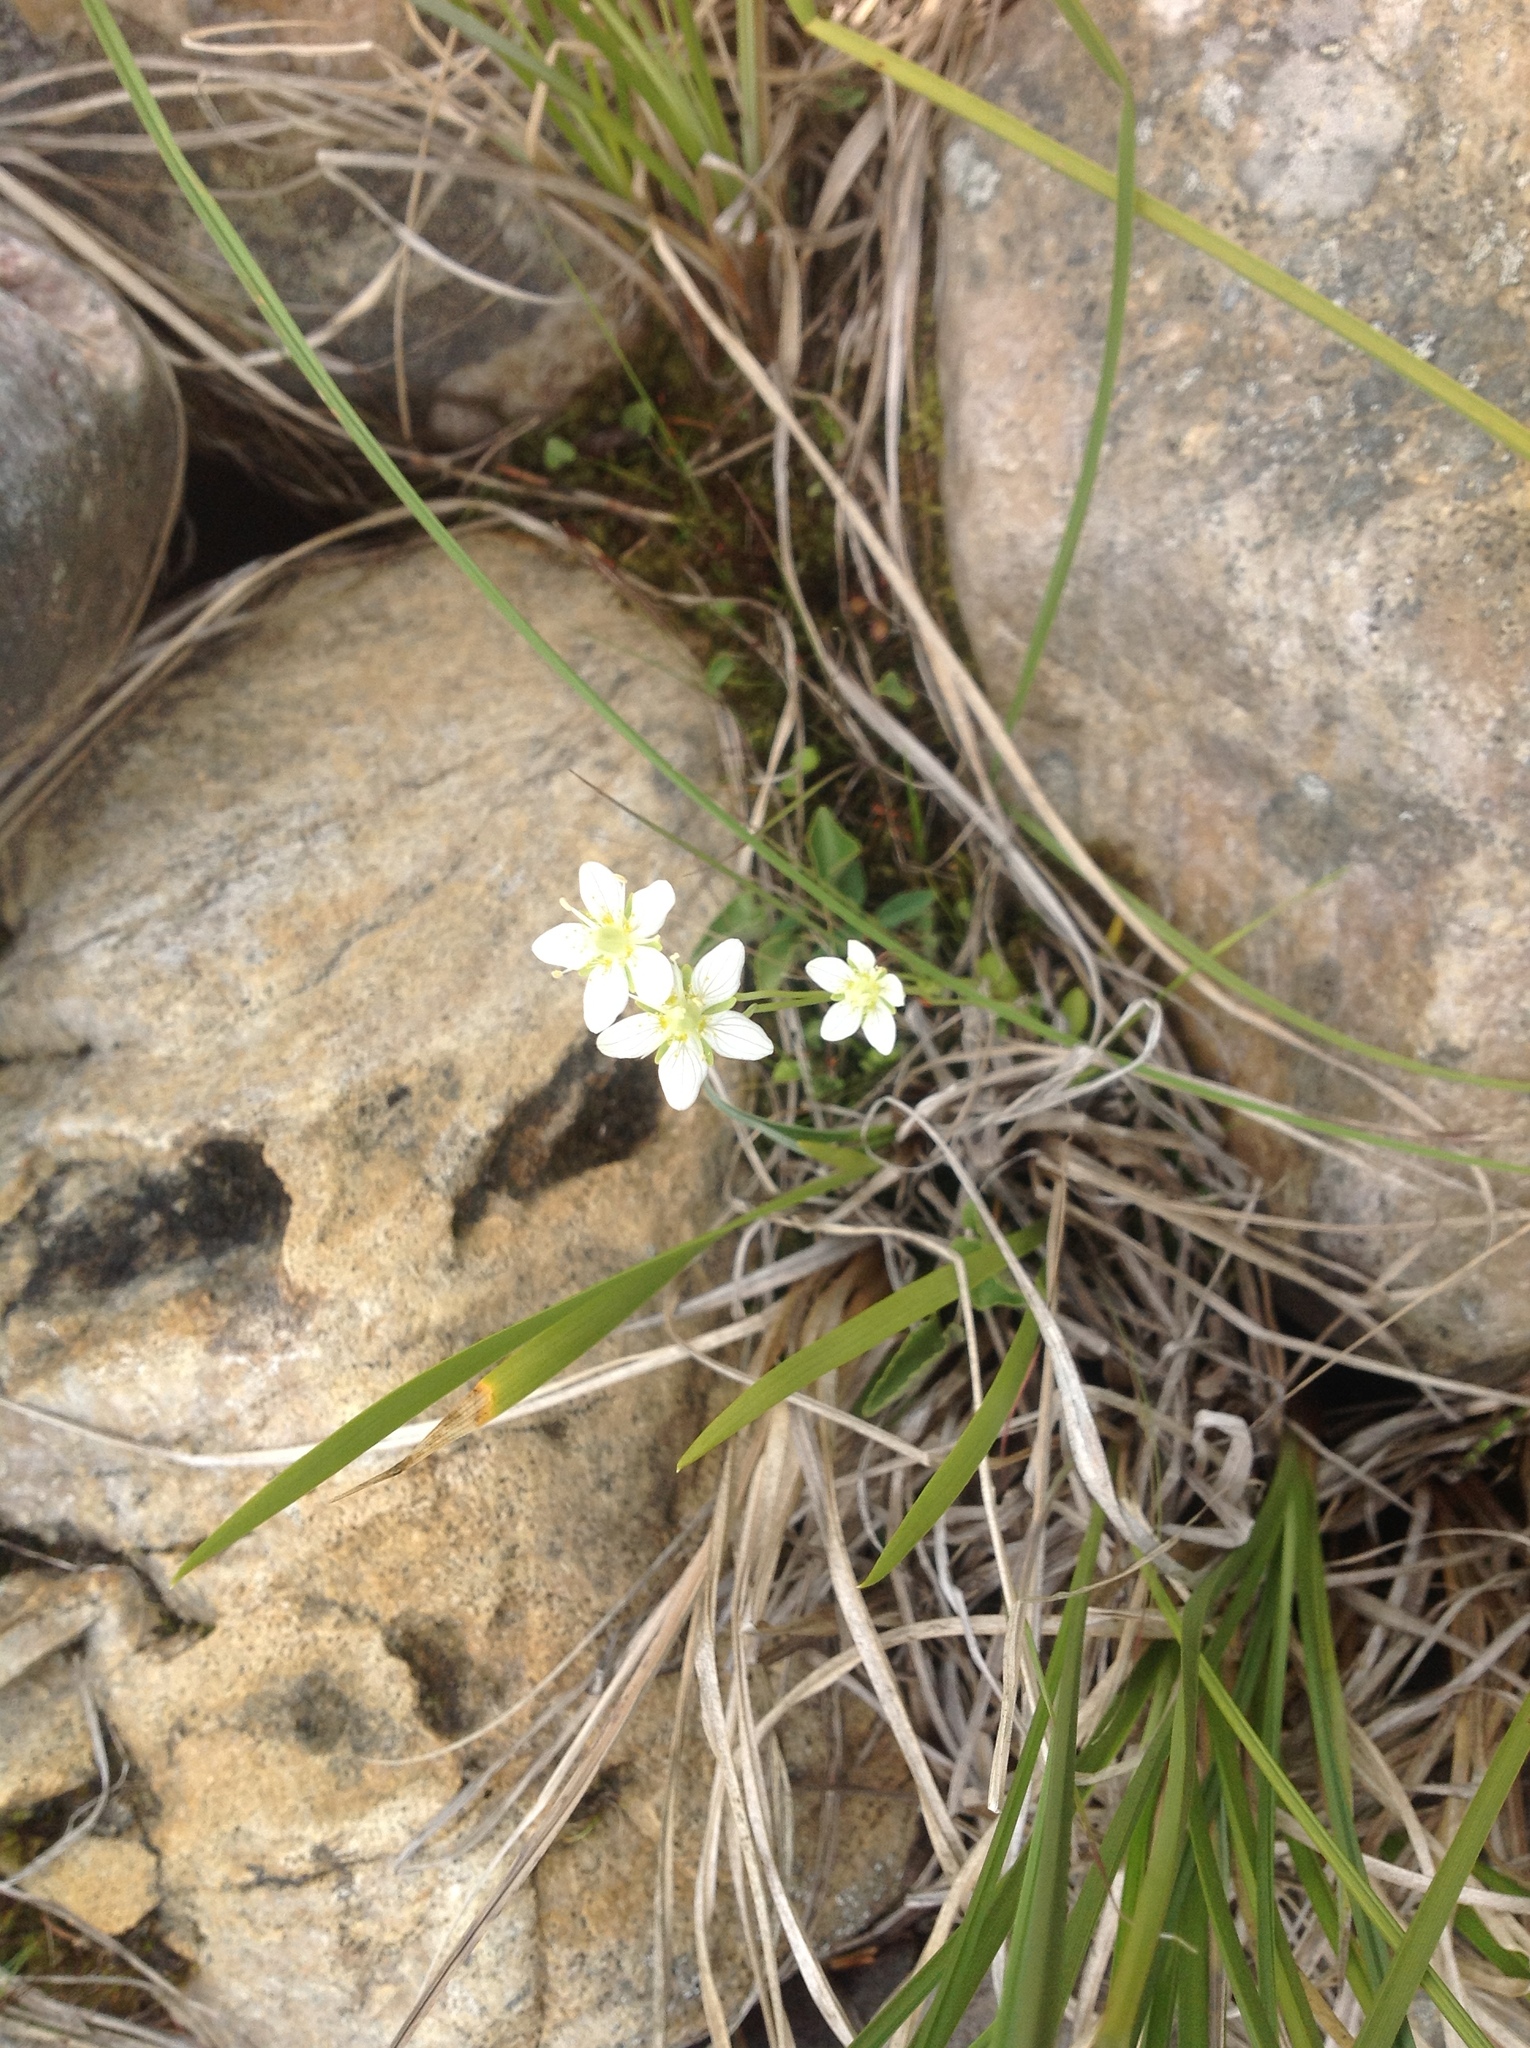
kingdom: Plantae
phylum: Tracheophyta
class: Magnoliopsida
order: Celastrales
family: Parnassiaceae
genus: Parnassia
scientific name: Parnassia palustris
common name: Grass-of-parnassus
